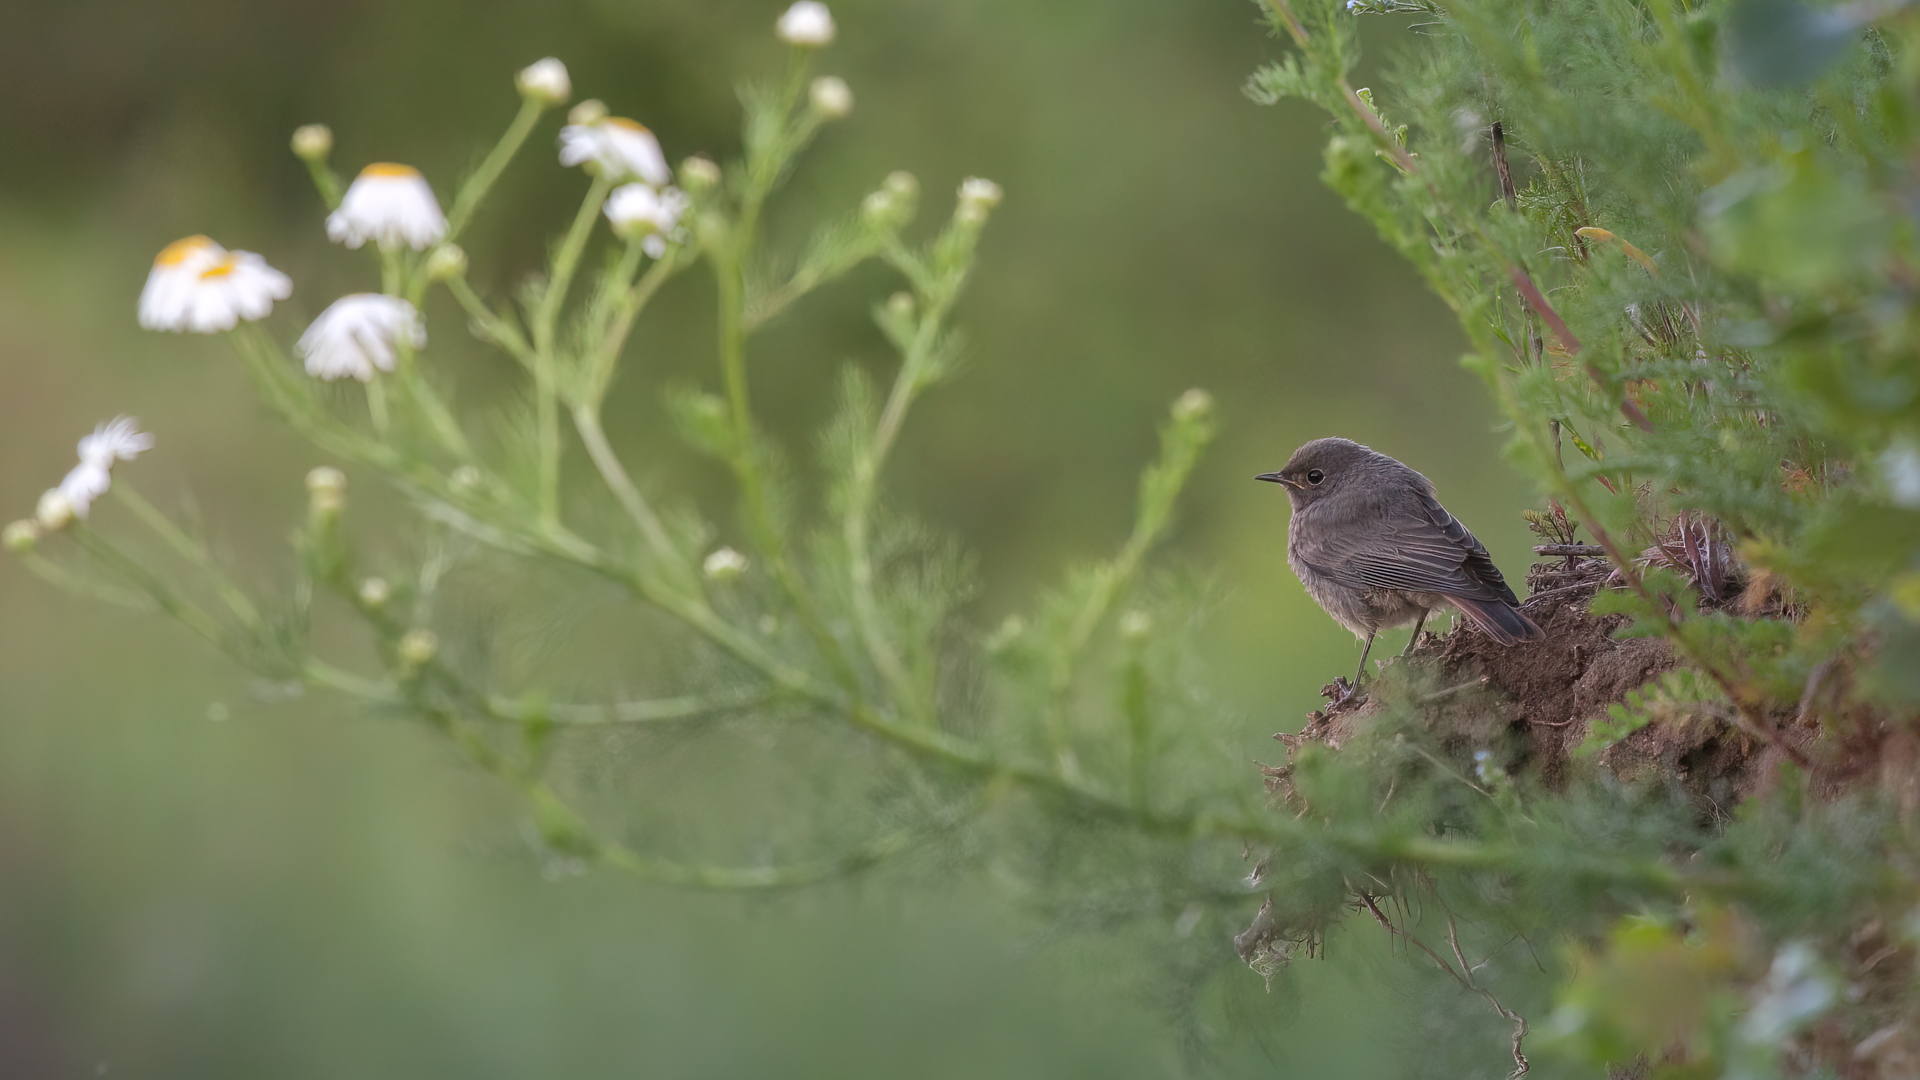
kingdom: Animalia
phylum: Chordata
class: Aves
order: Passeriformes
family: Muscicapidae
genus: Phoenicurus
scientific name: Phoenicurus ochruros
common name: Black redstart
